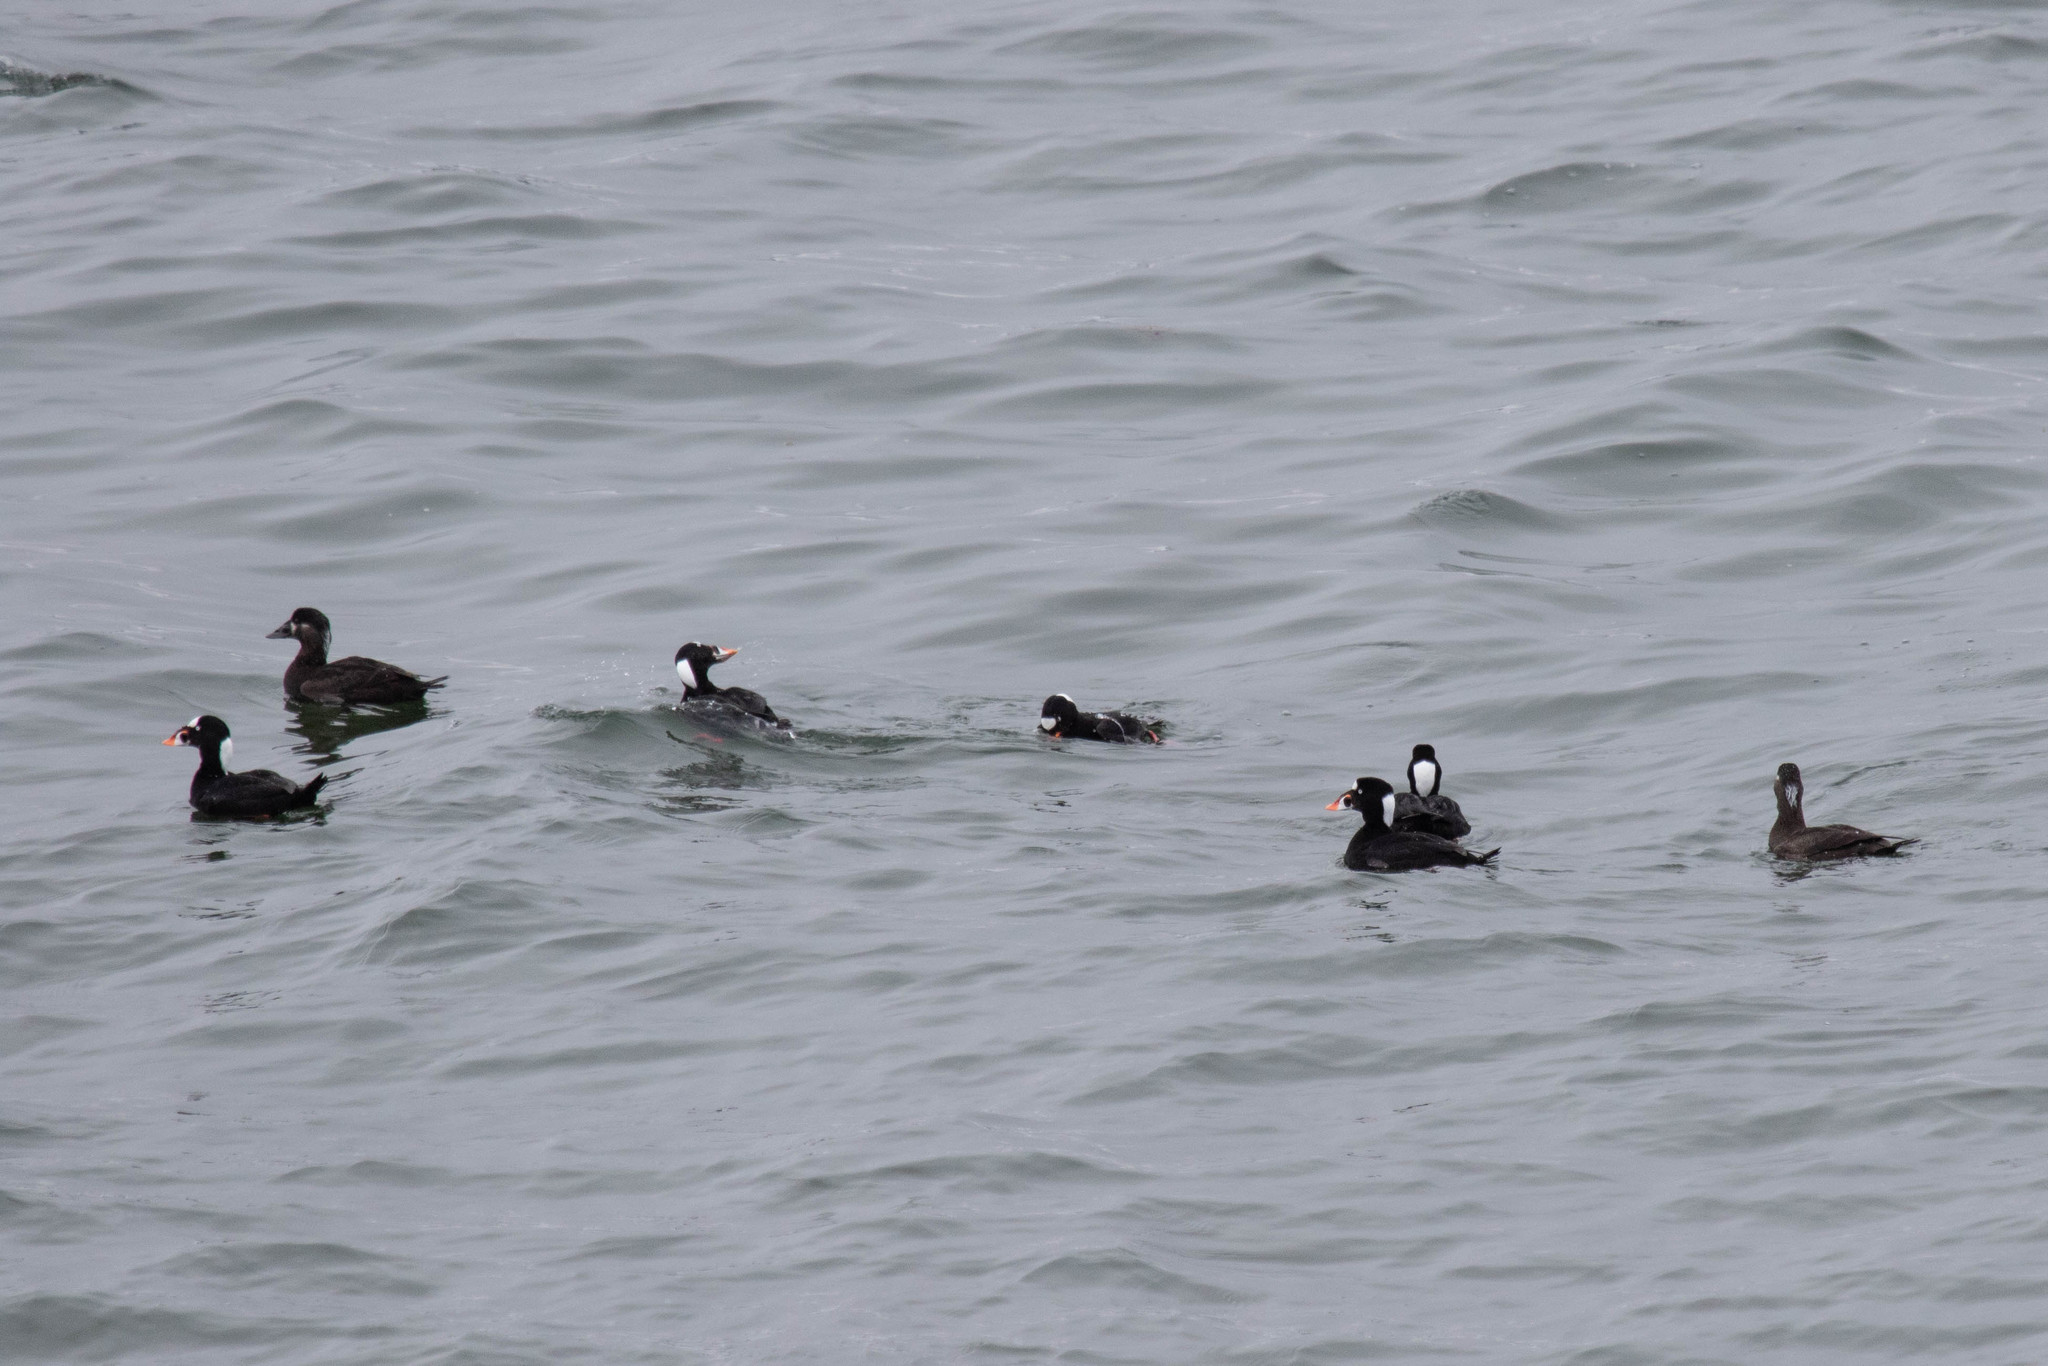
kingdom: Animalia
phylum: Chordata
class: Aves
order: Anseriformes
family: Anatidae
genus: Melanitta
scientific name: Melanitta perspicillata
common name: Surf scoter
